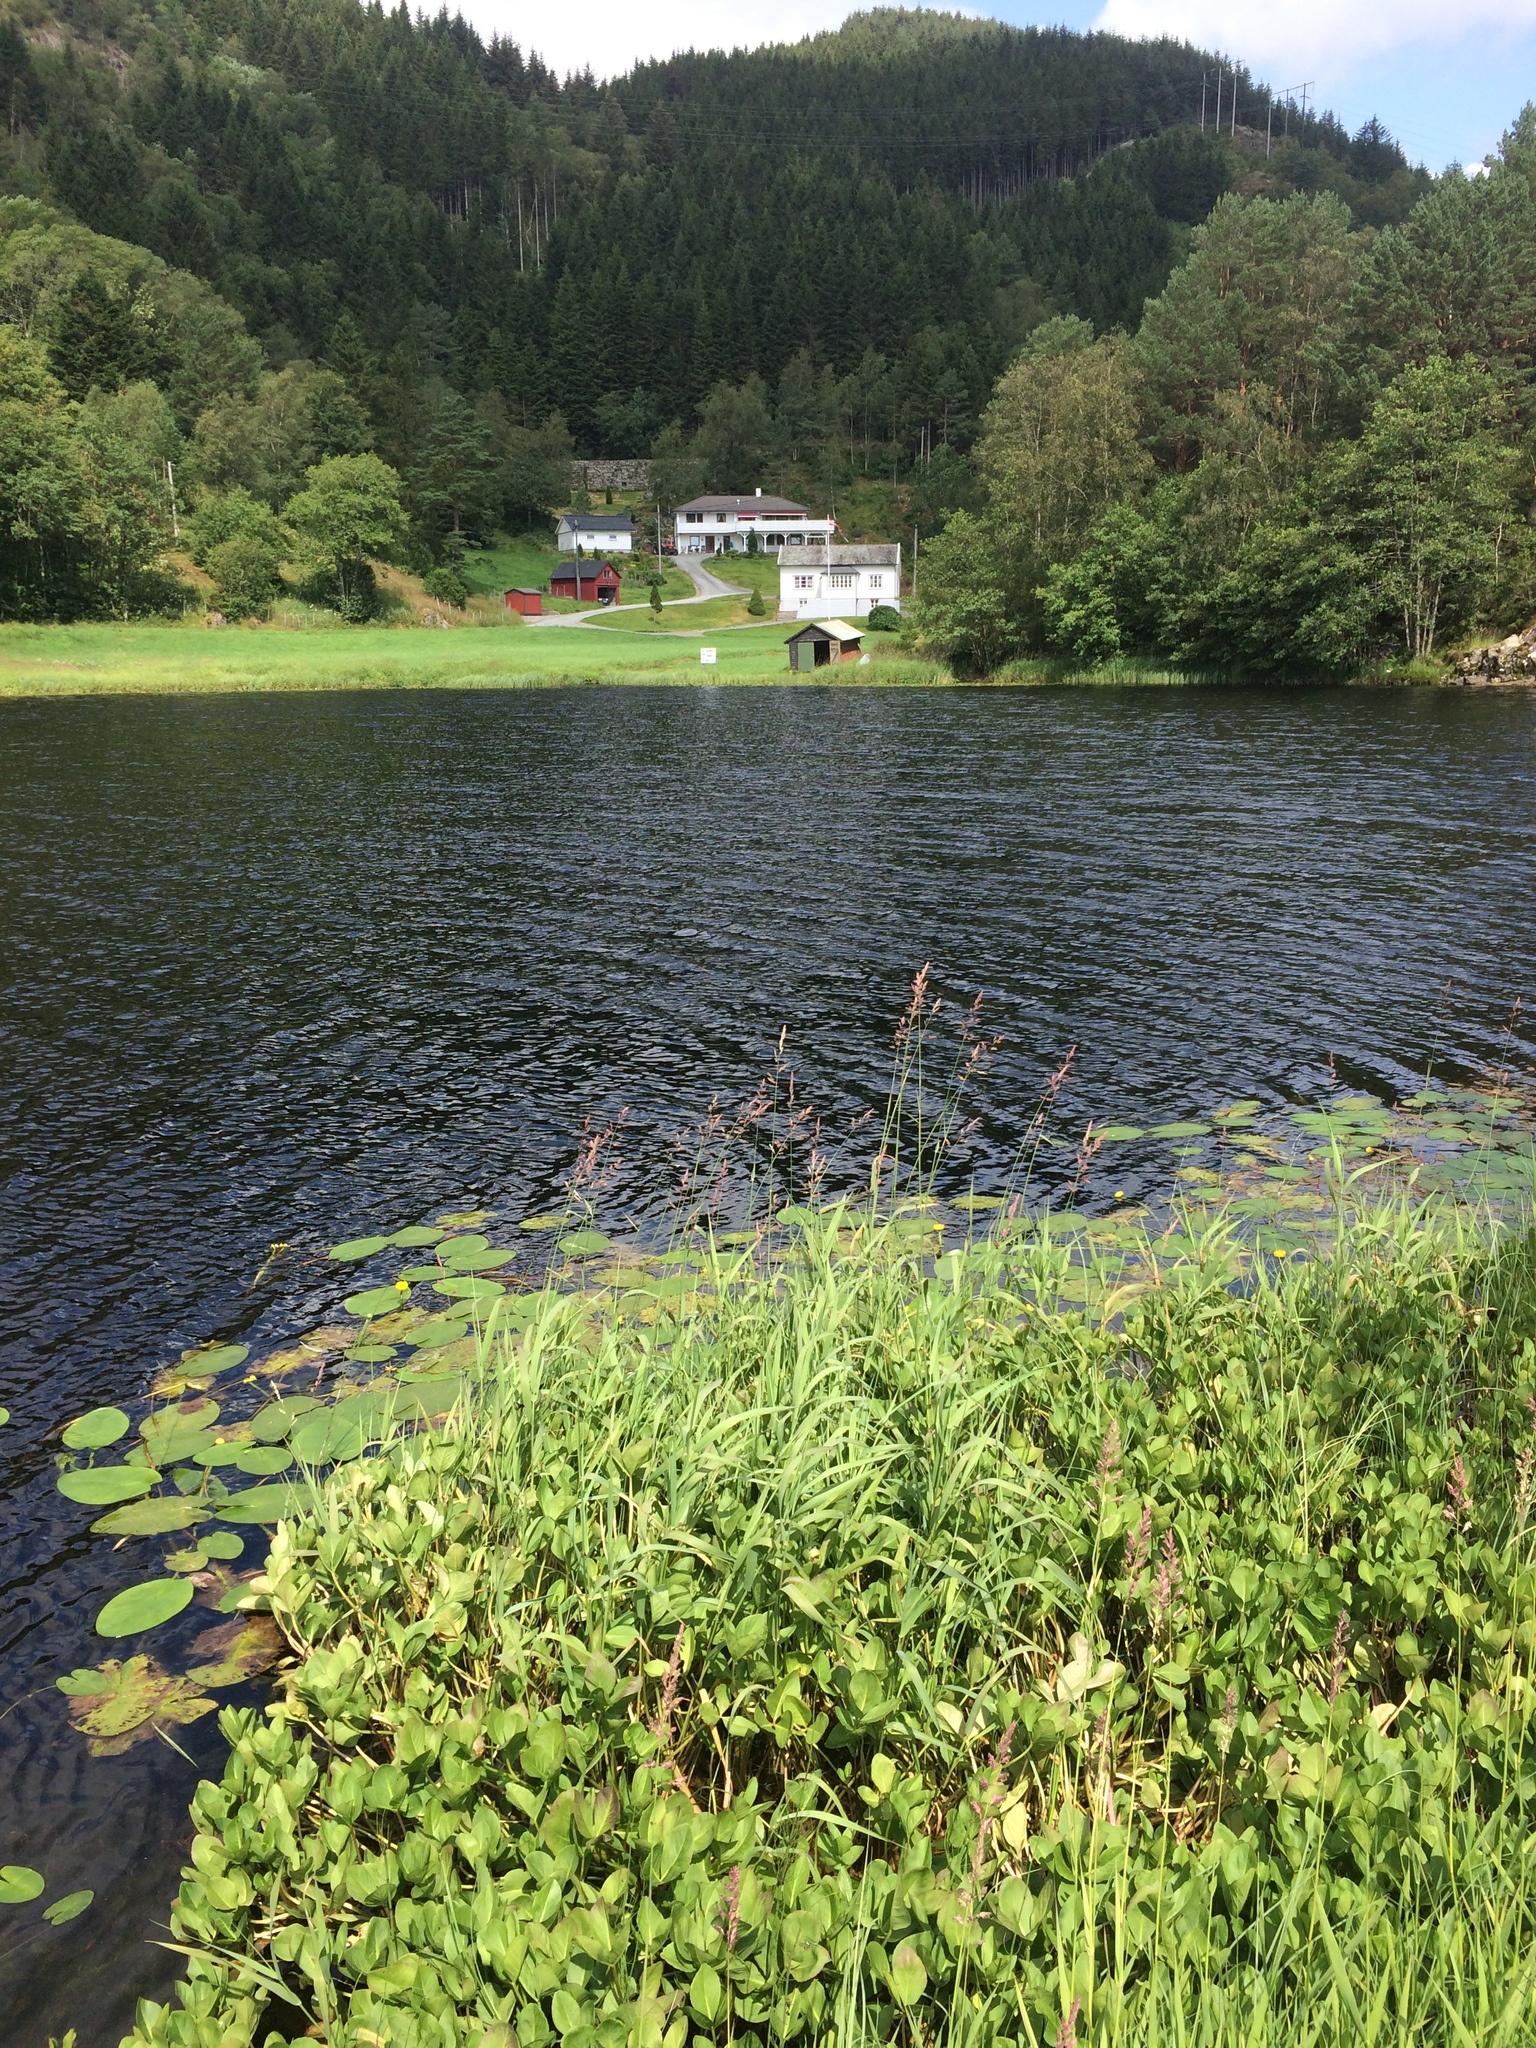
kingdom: Plantae
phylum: Tracheophyta
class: Magnoliopsida
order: Nymphaeales
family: Nymphaeaceae
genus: Nuphar
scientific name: Nuphar lutea
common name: Yellow water-lily
